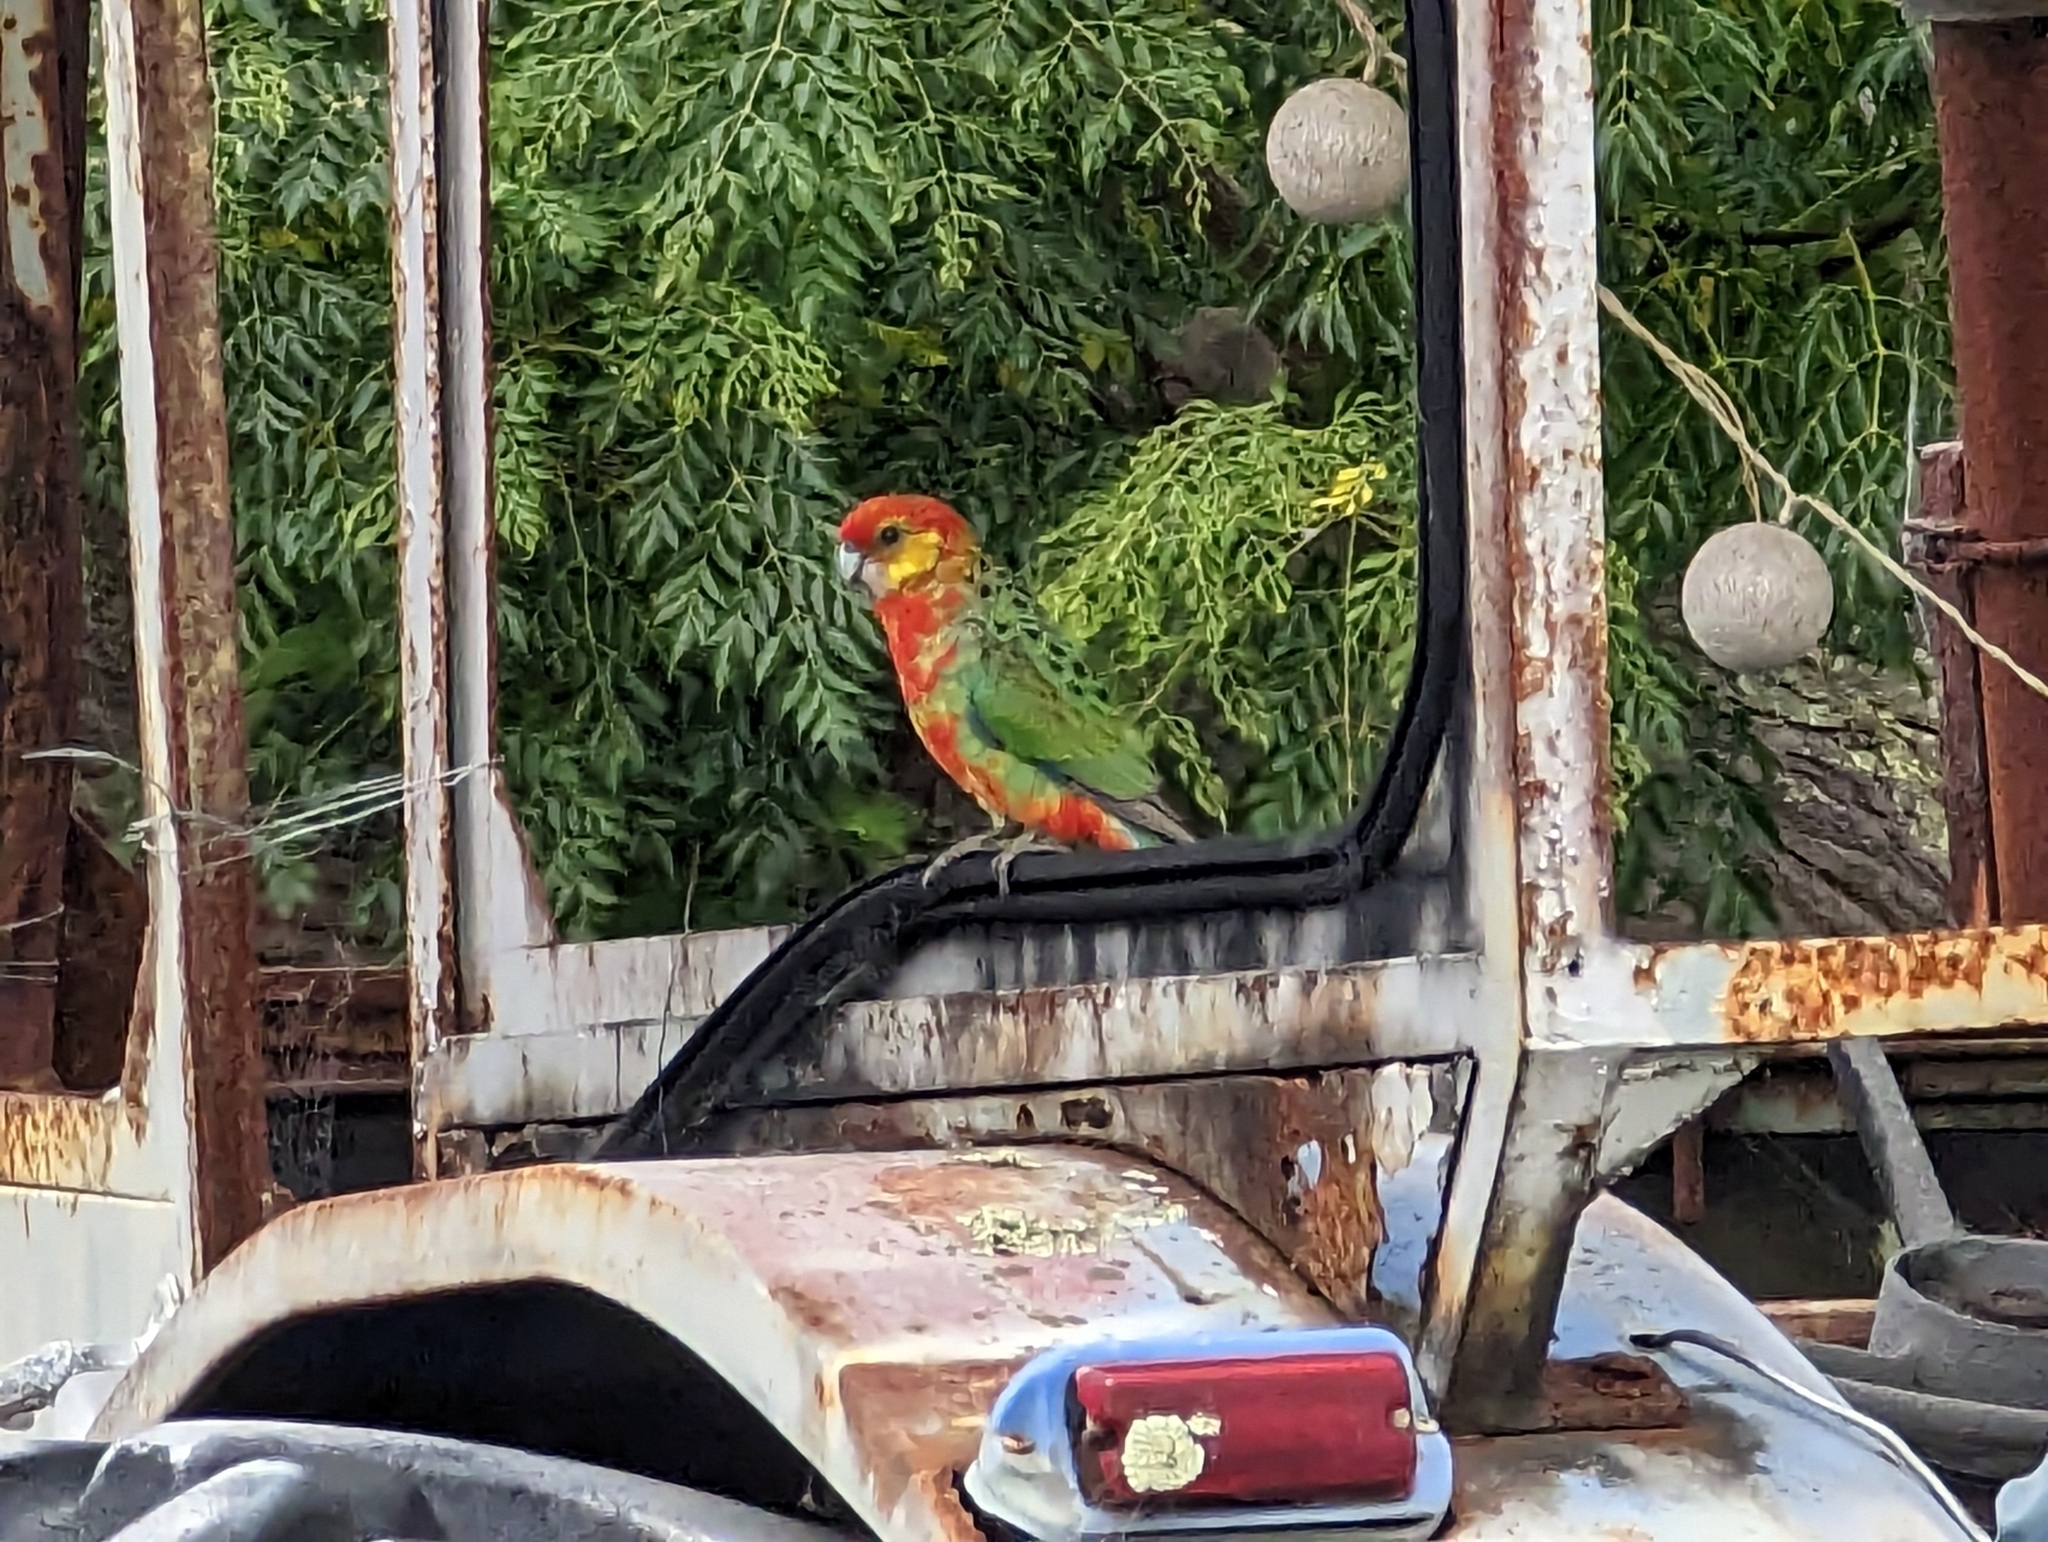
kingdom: Animalia
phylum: Chordata
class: Aves
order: Psittaciformes
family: Psittacidae
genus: Platycercus
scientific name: Platycercus icterotis
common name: Western rosella
